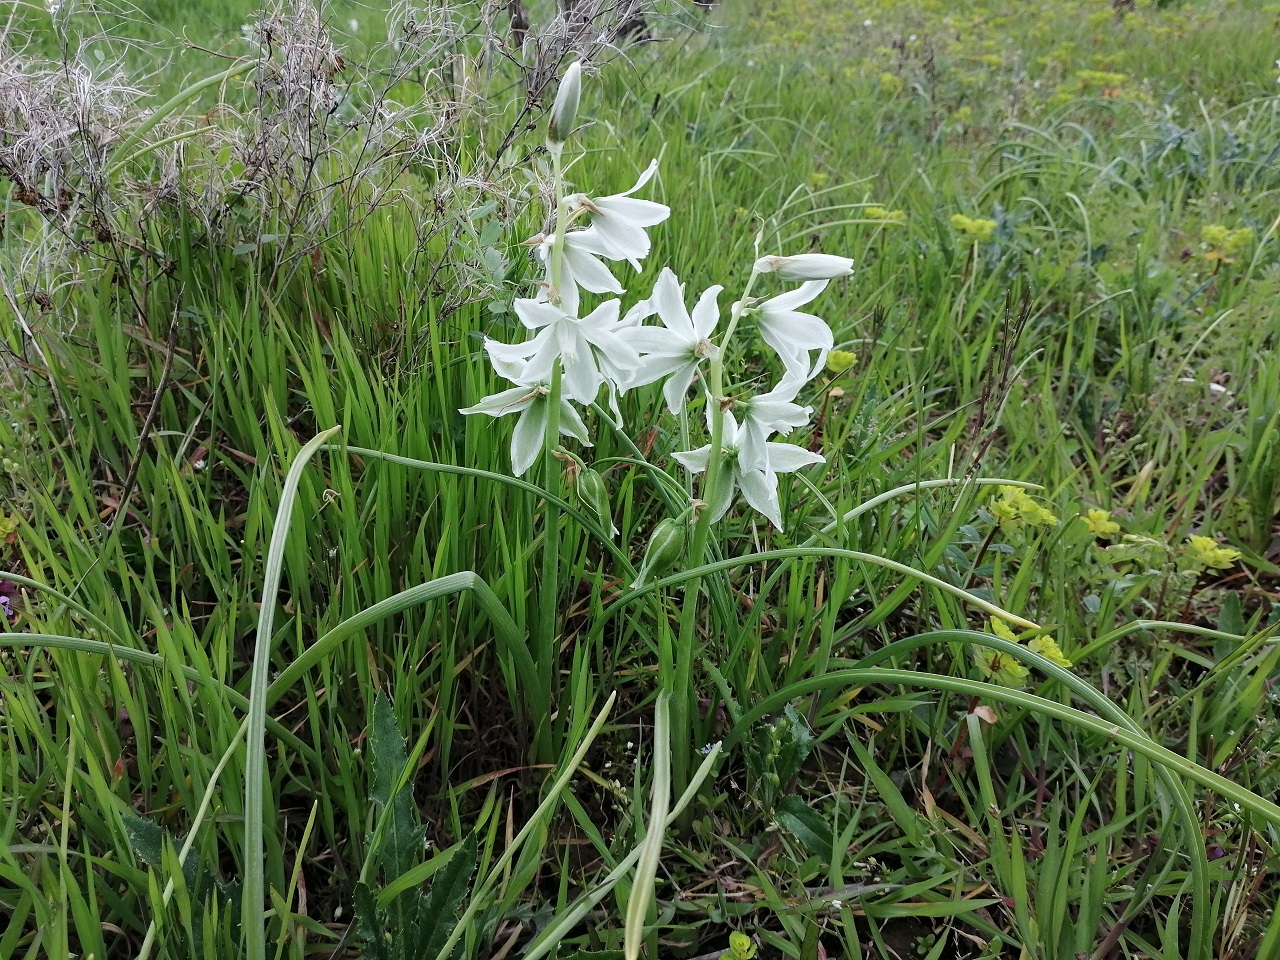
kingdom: Plantae
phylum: Tracheophyta
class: Liliopsida
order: Asparagales
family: Asparagaceae
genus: Ornithogalum
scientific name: Ornithogalum nutans
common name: Drooping star-of-bethlehem
